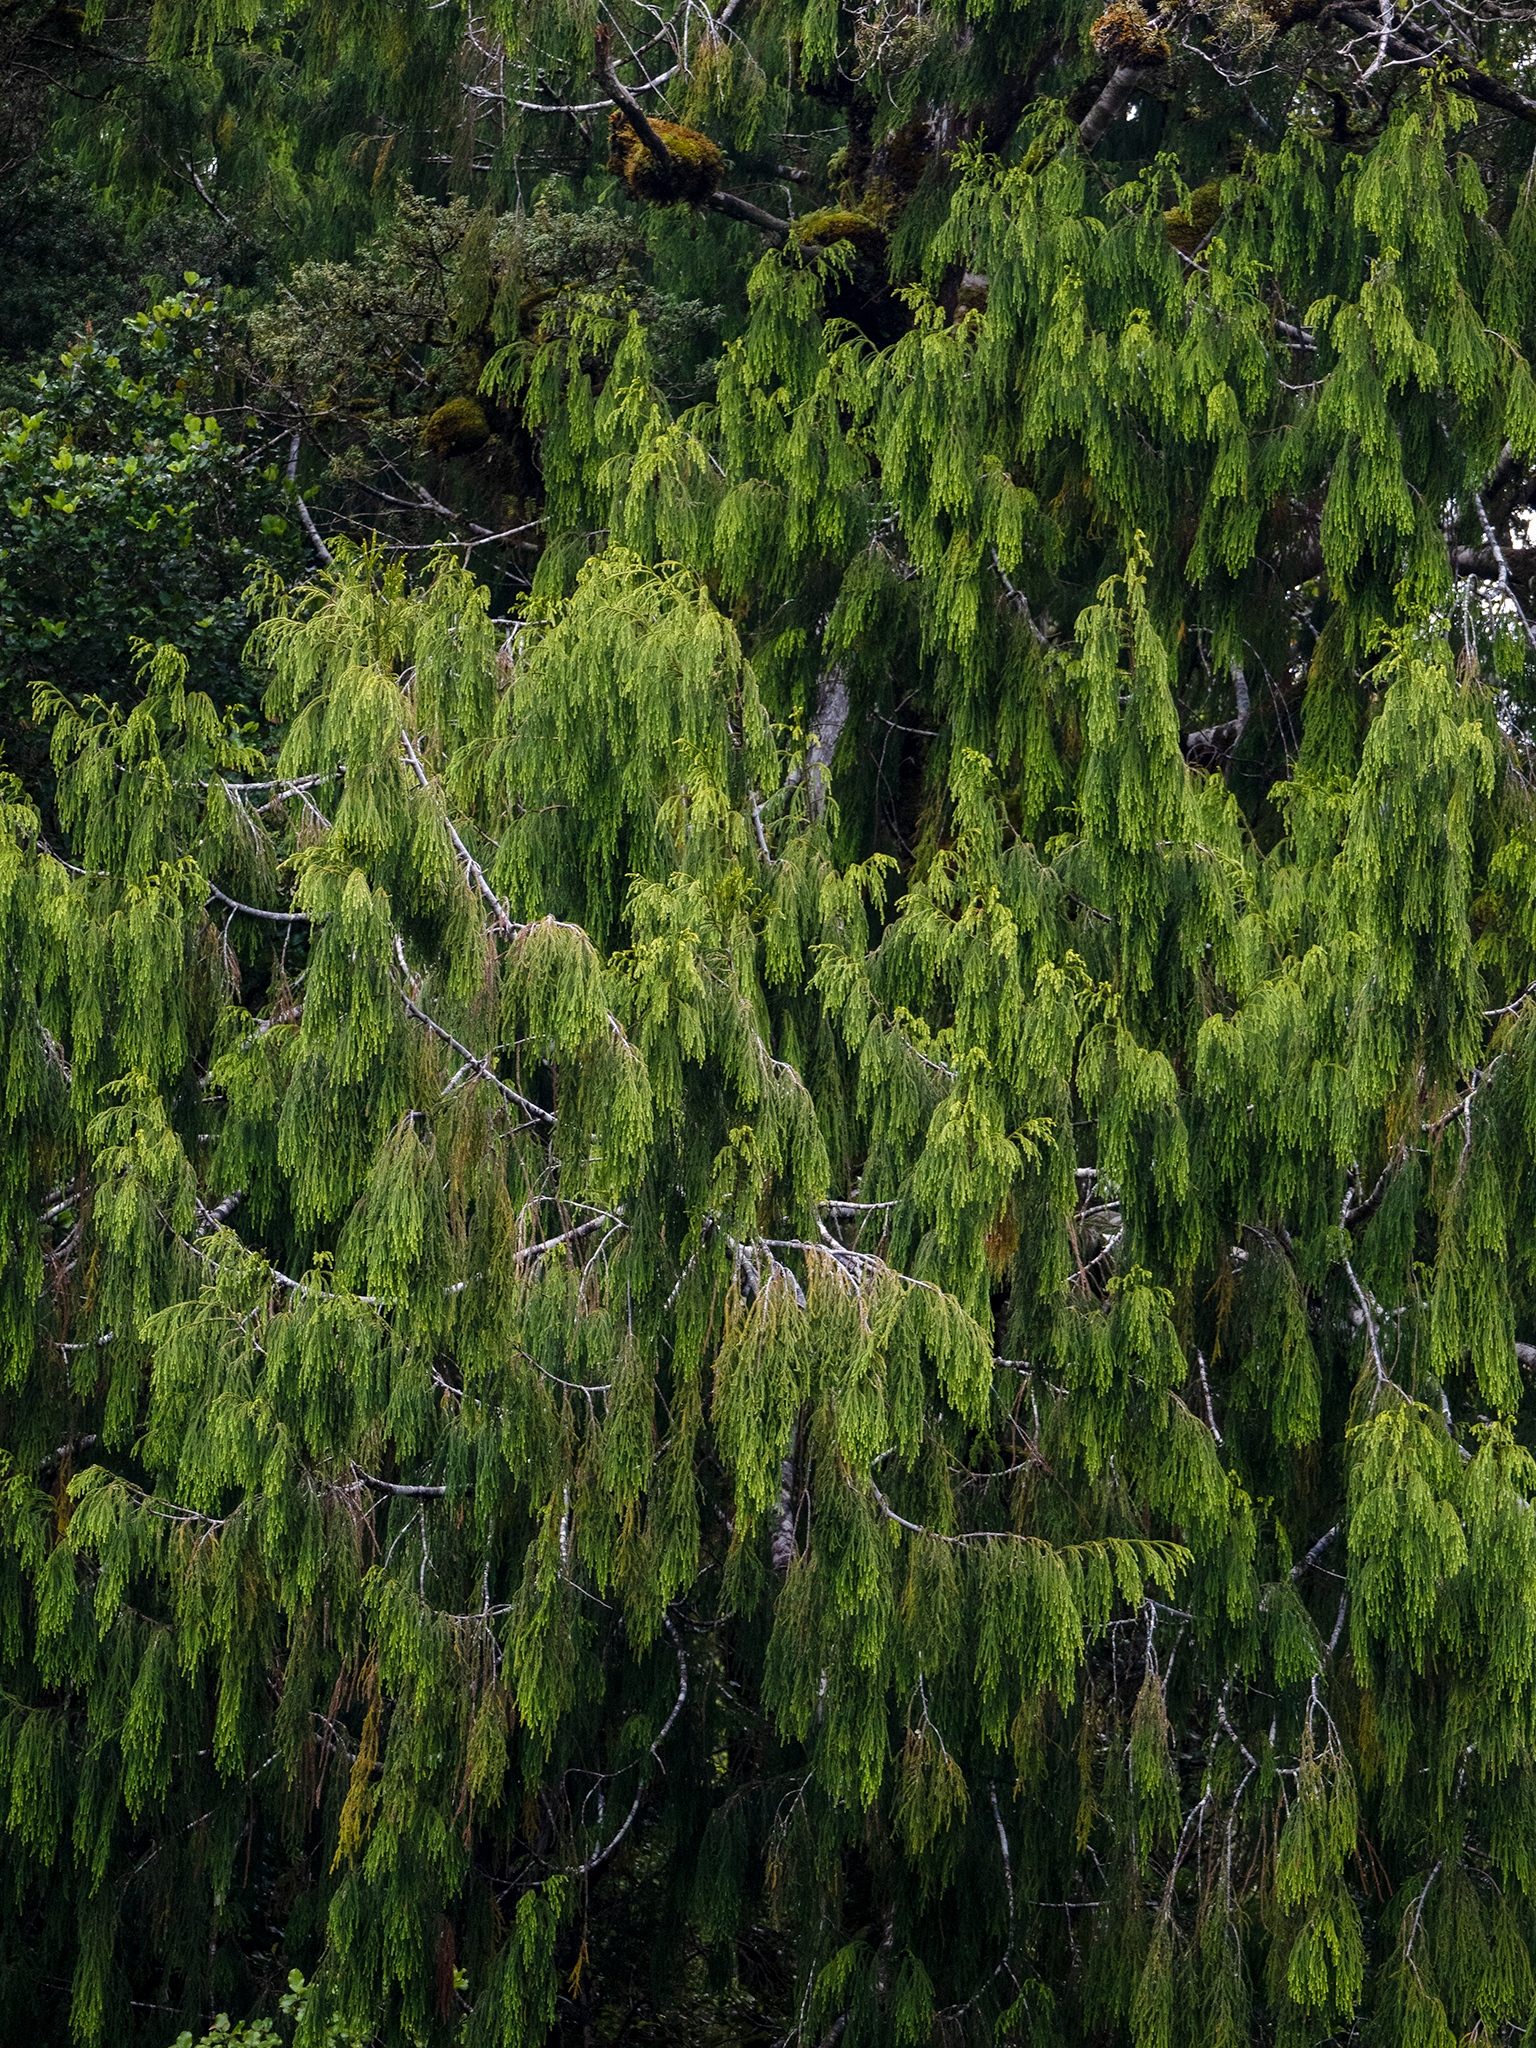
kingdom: Plantae
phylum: Tracheophyta
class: Pinopsida
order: Pinales
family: Podocarpaceae
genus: Dacrydium
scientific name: Dacrydium cupressinum
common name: Red pine
